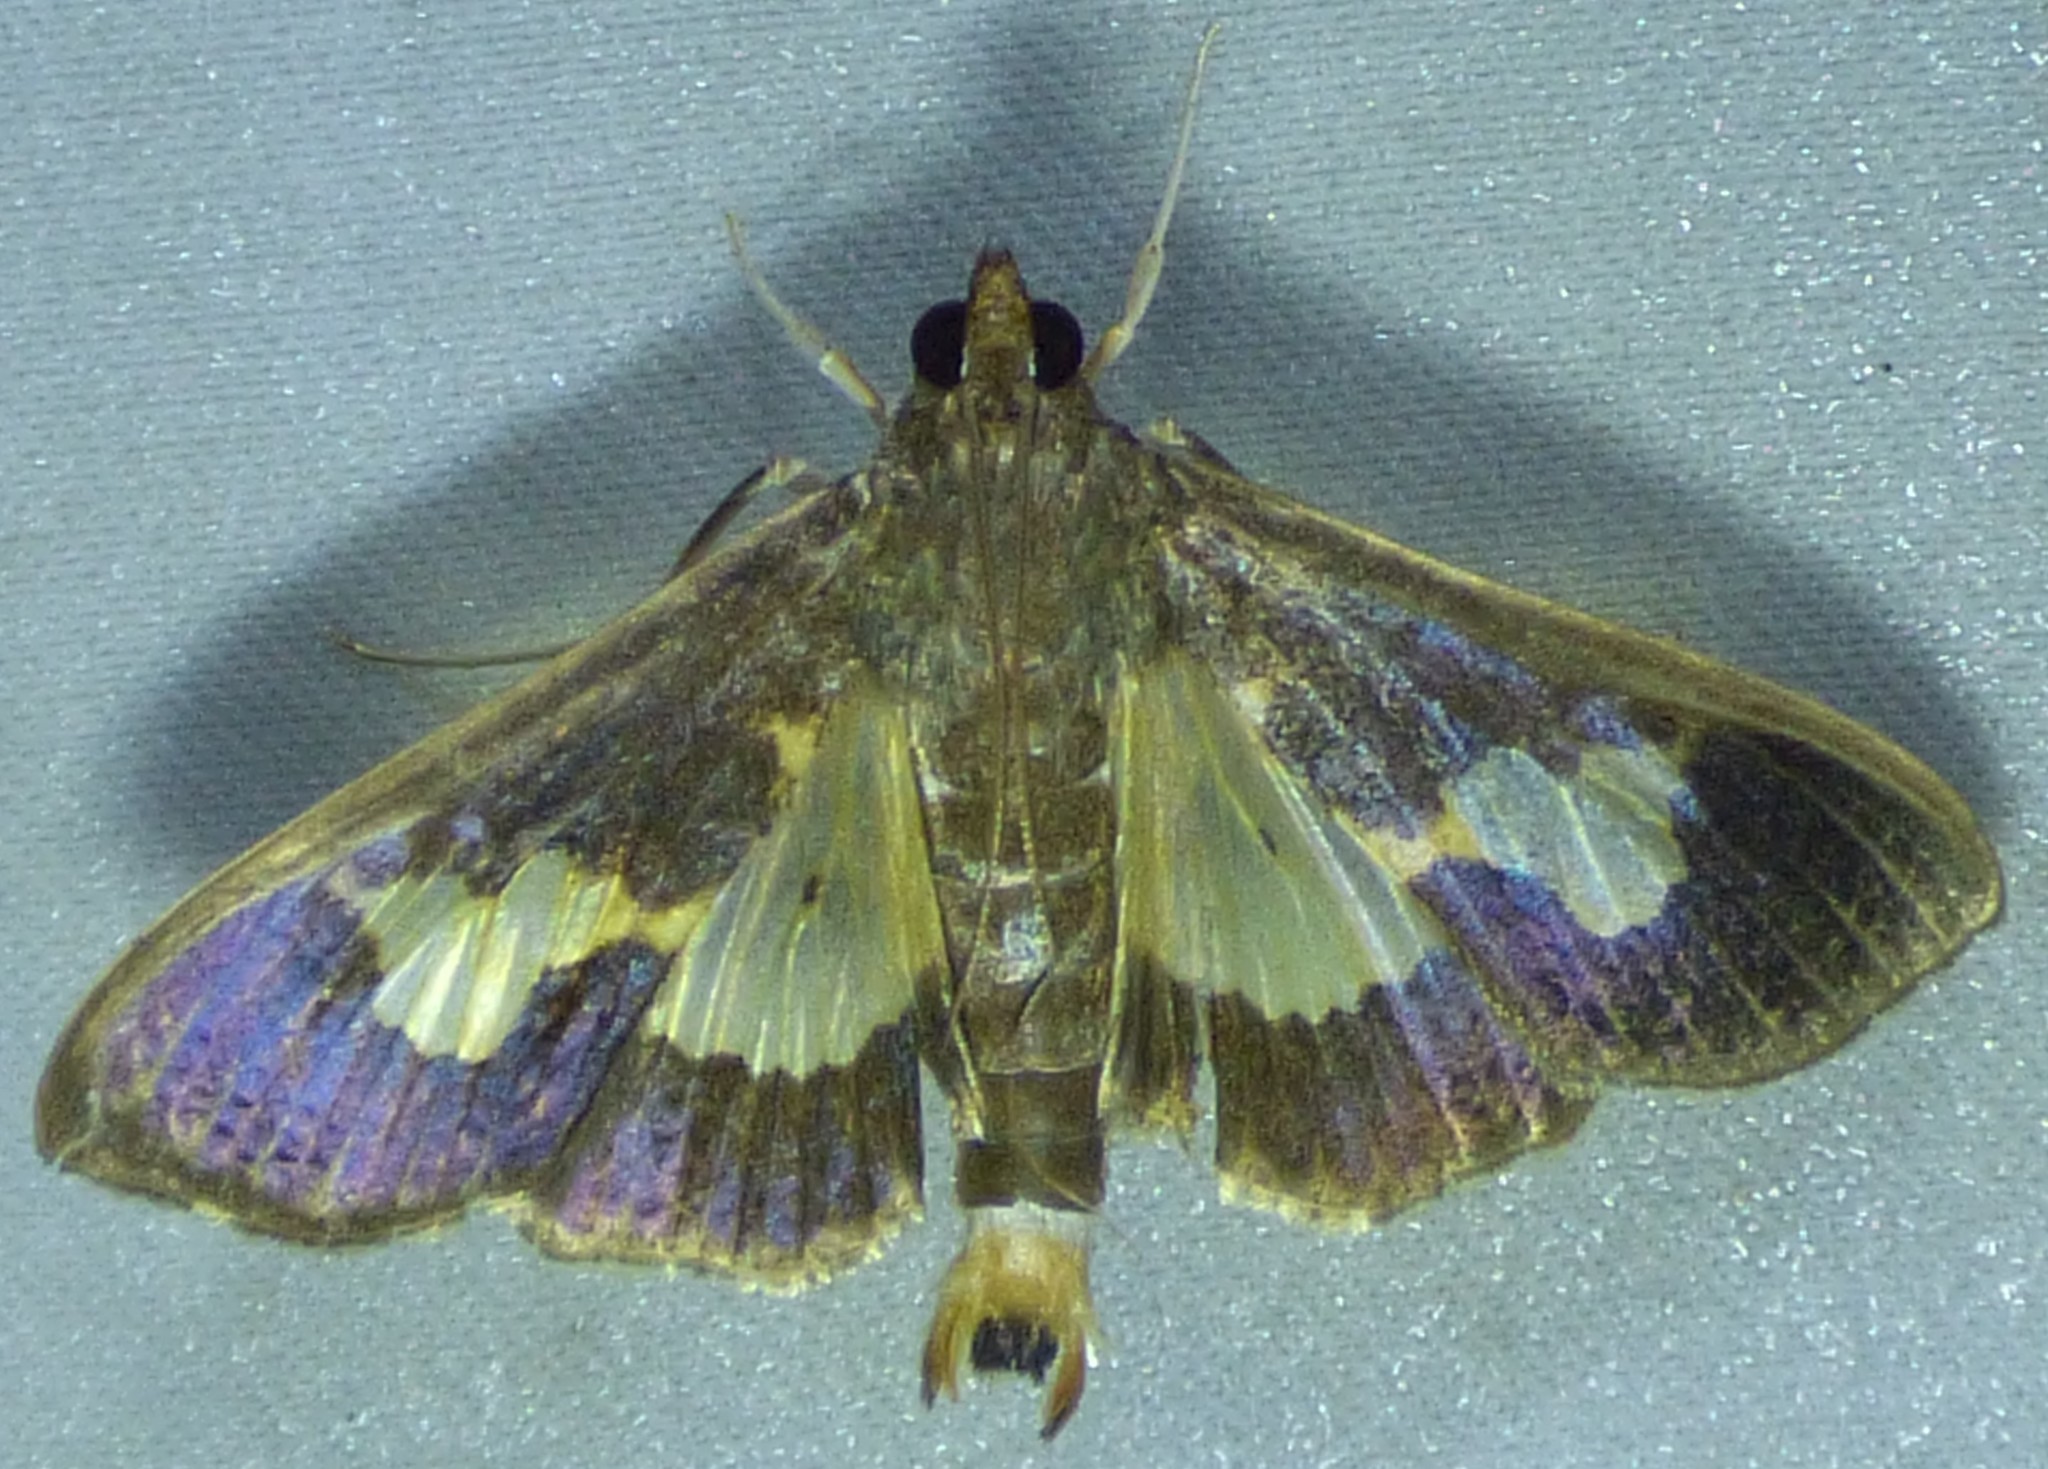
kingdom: Animalia
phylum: Arthropoda
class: Insecta
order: Lepidoptera
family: Crambidae
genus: Cryptographis
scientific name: Cryptographis nitidalis
